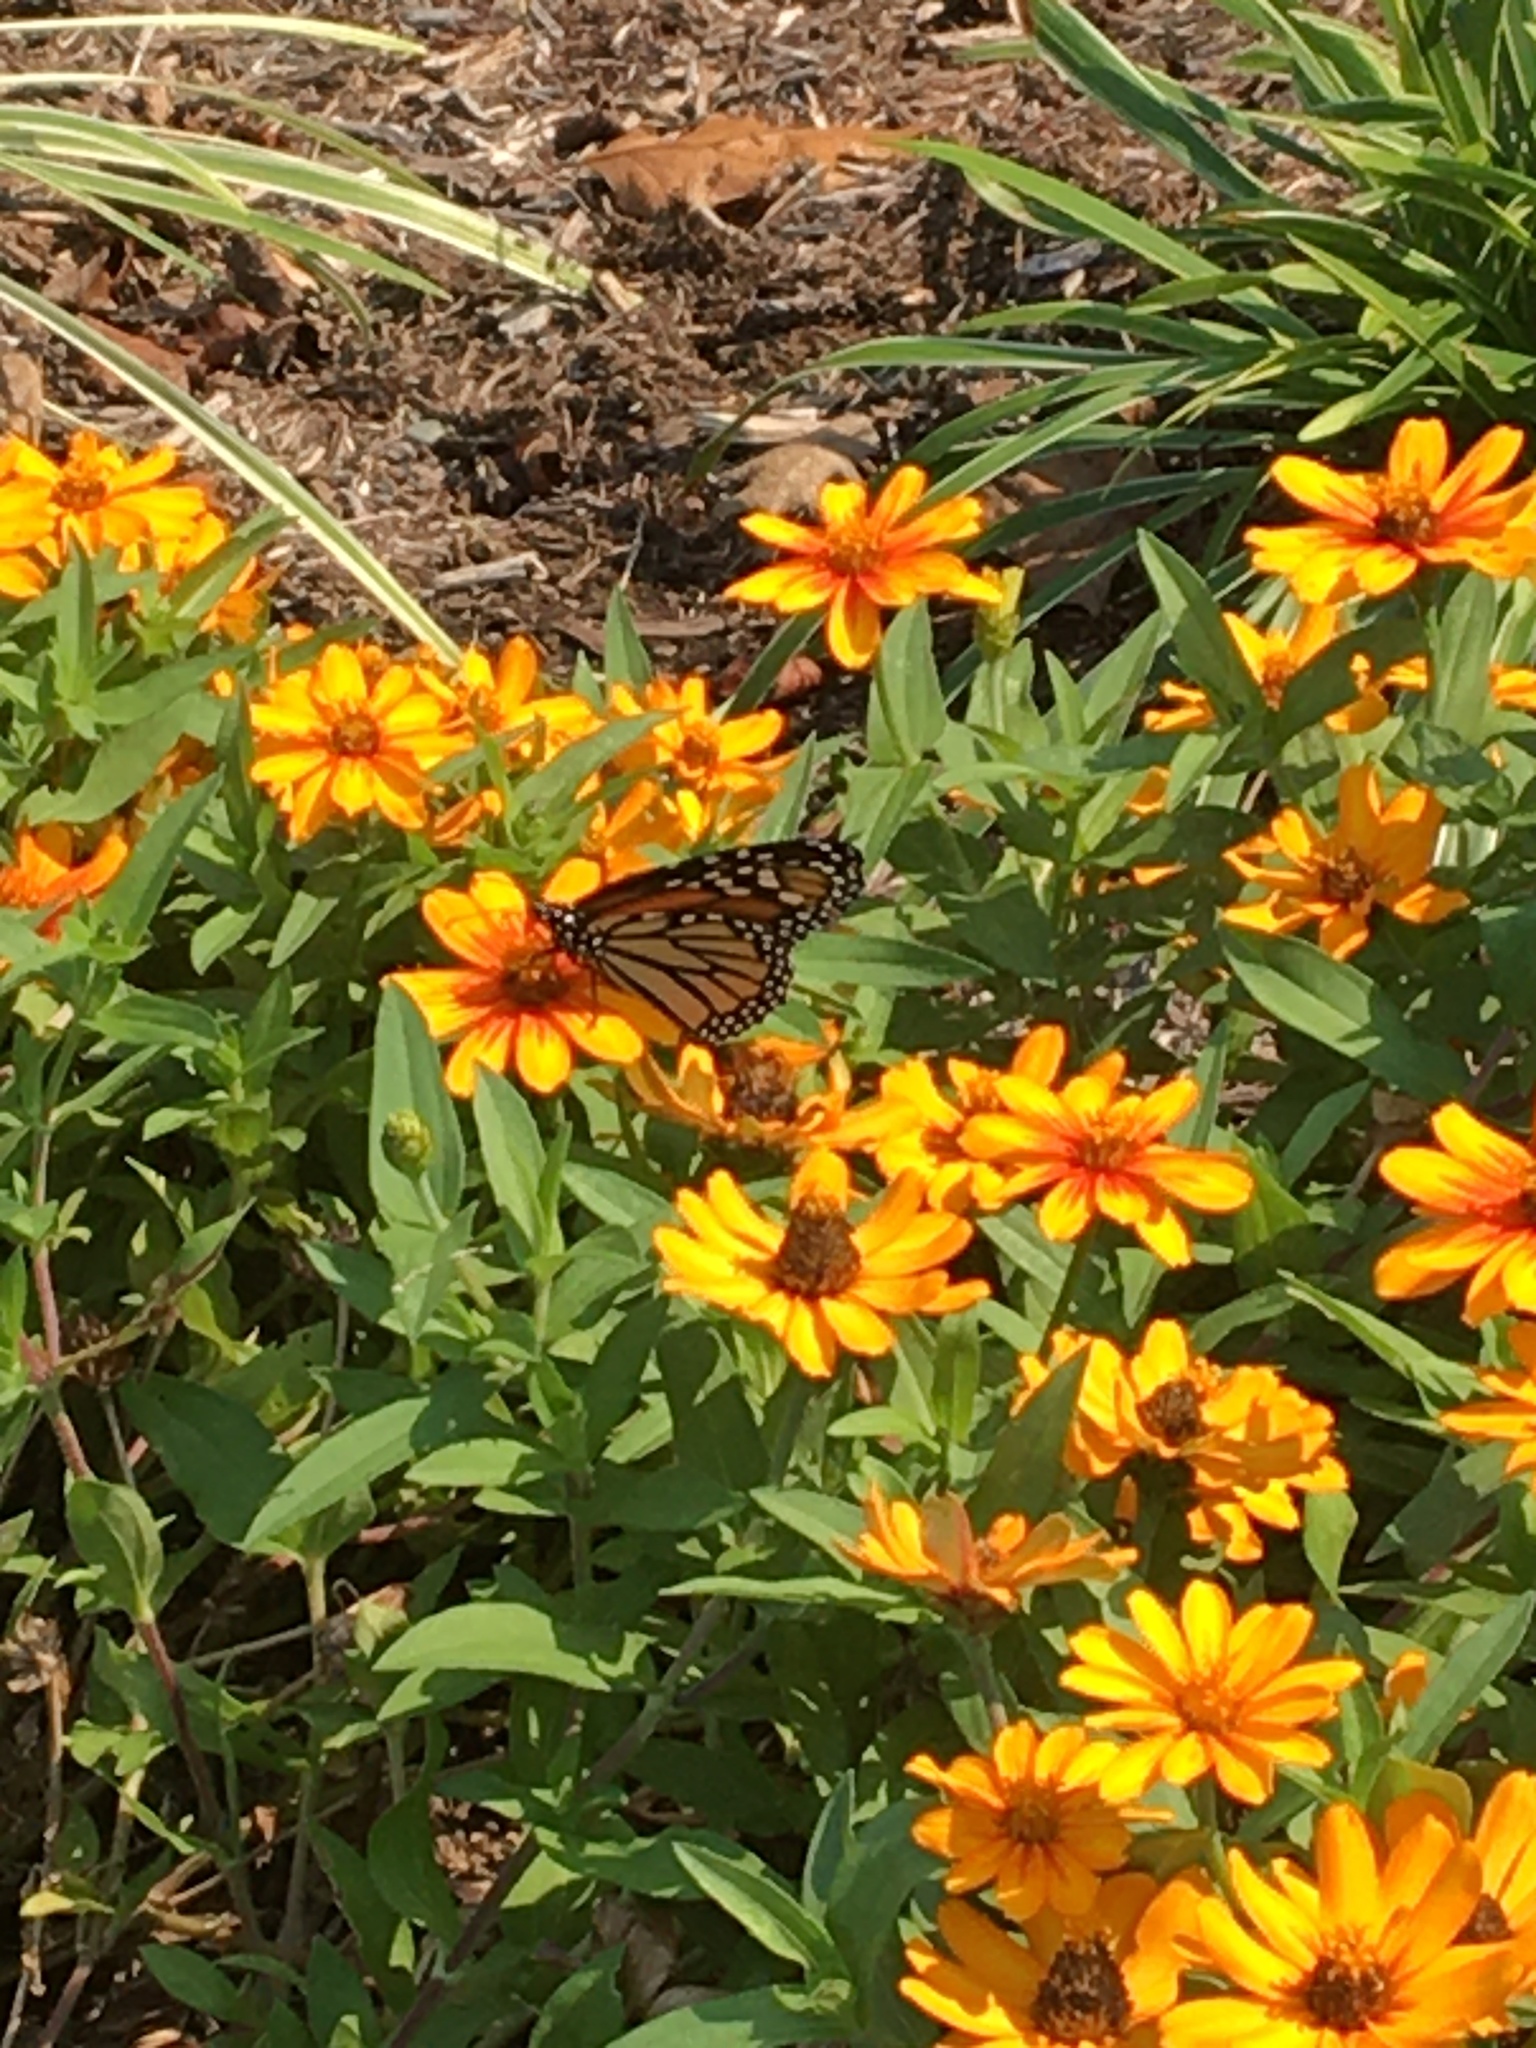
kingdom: Animalia
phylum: Arthropoda
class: Insecta
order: Lepidoptera
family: Nymphalidae
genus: Danaus
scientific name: Danaus plexippus
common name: Monarch
